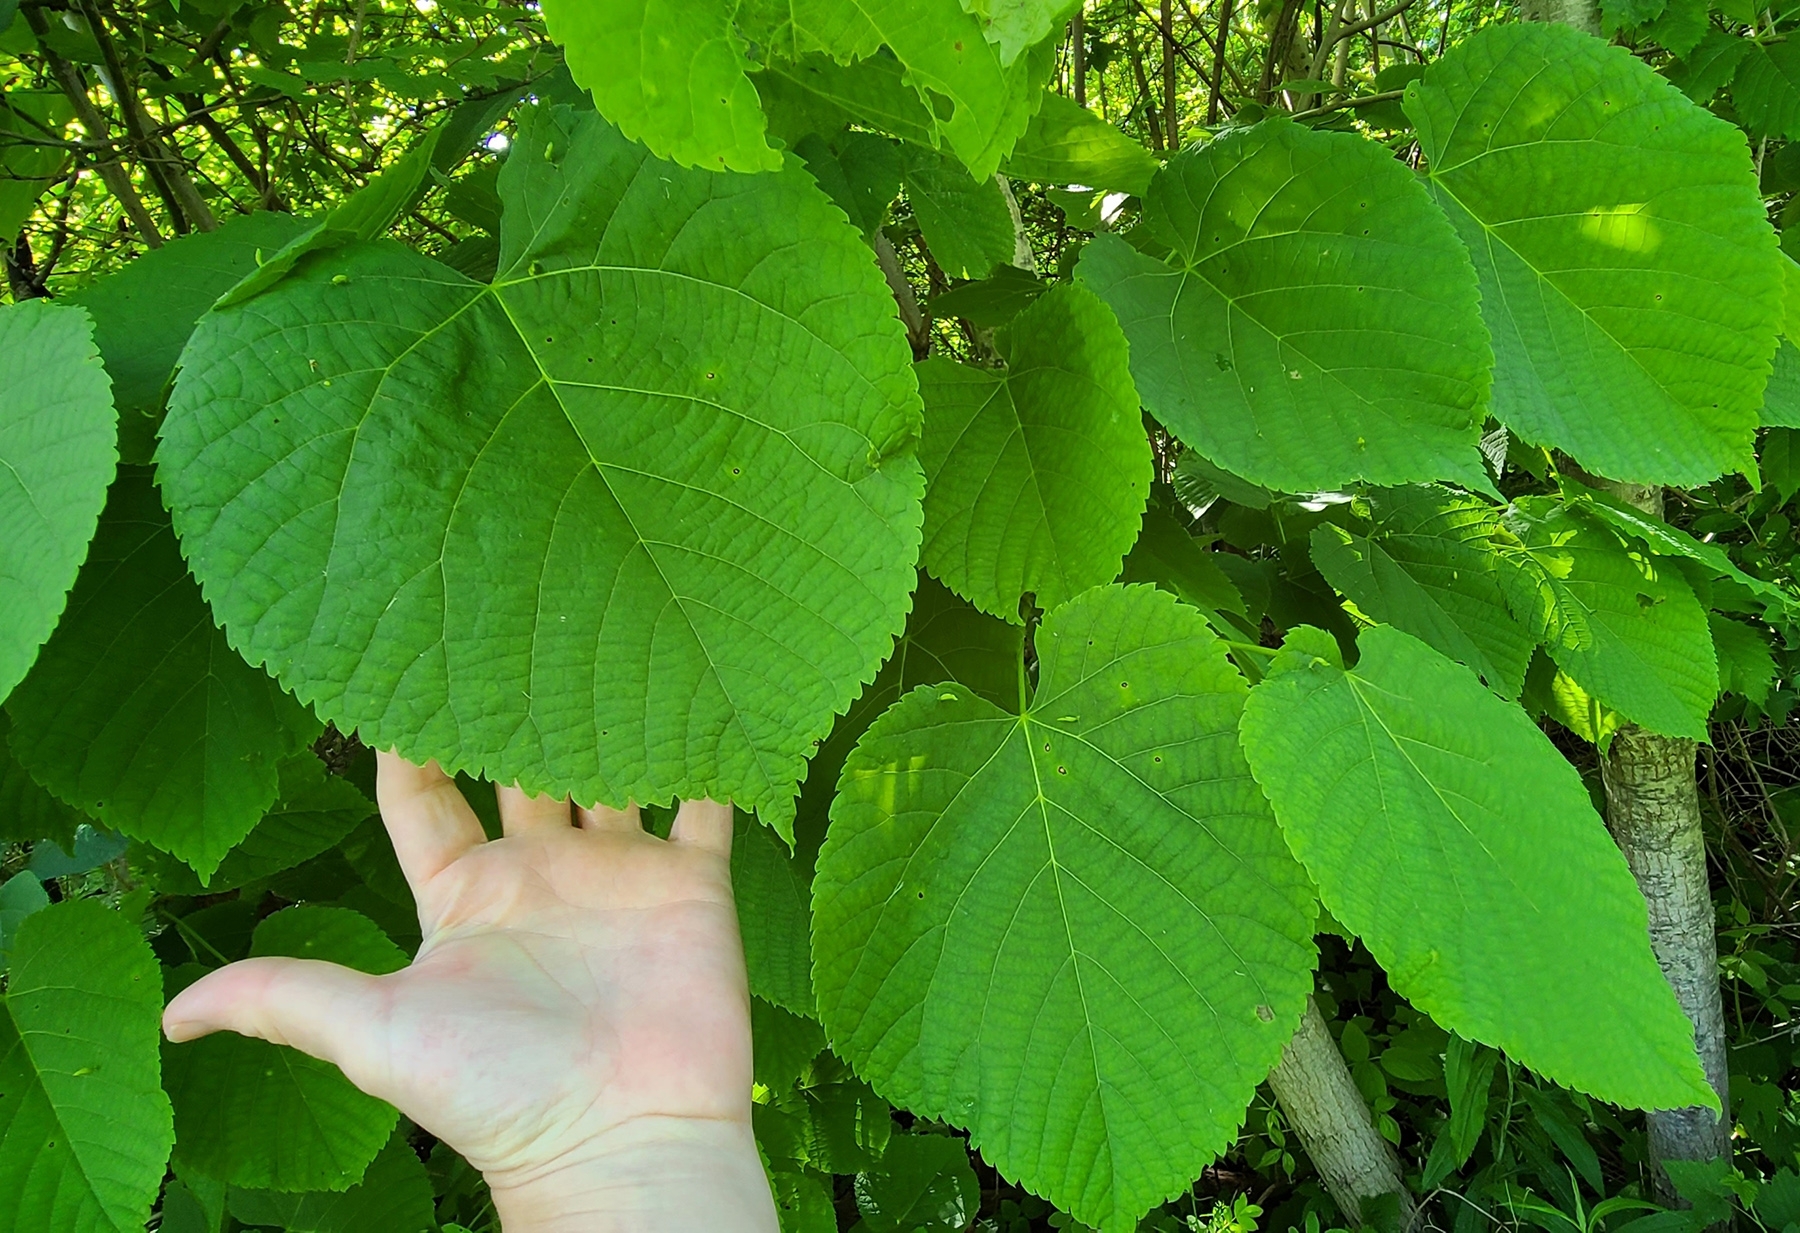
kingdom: Plantae
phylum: Tracheophyta
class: Magnoliopsida
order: Malvales
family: Malvaceae
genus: Tilia
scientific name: Tilia americana
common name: Basswood
